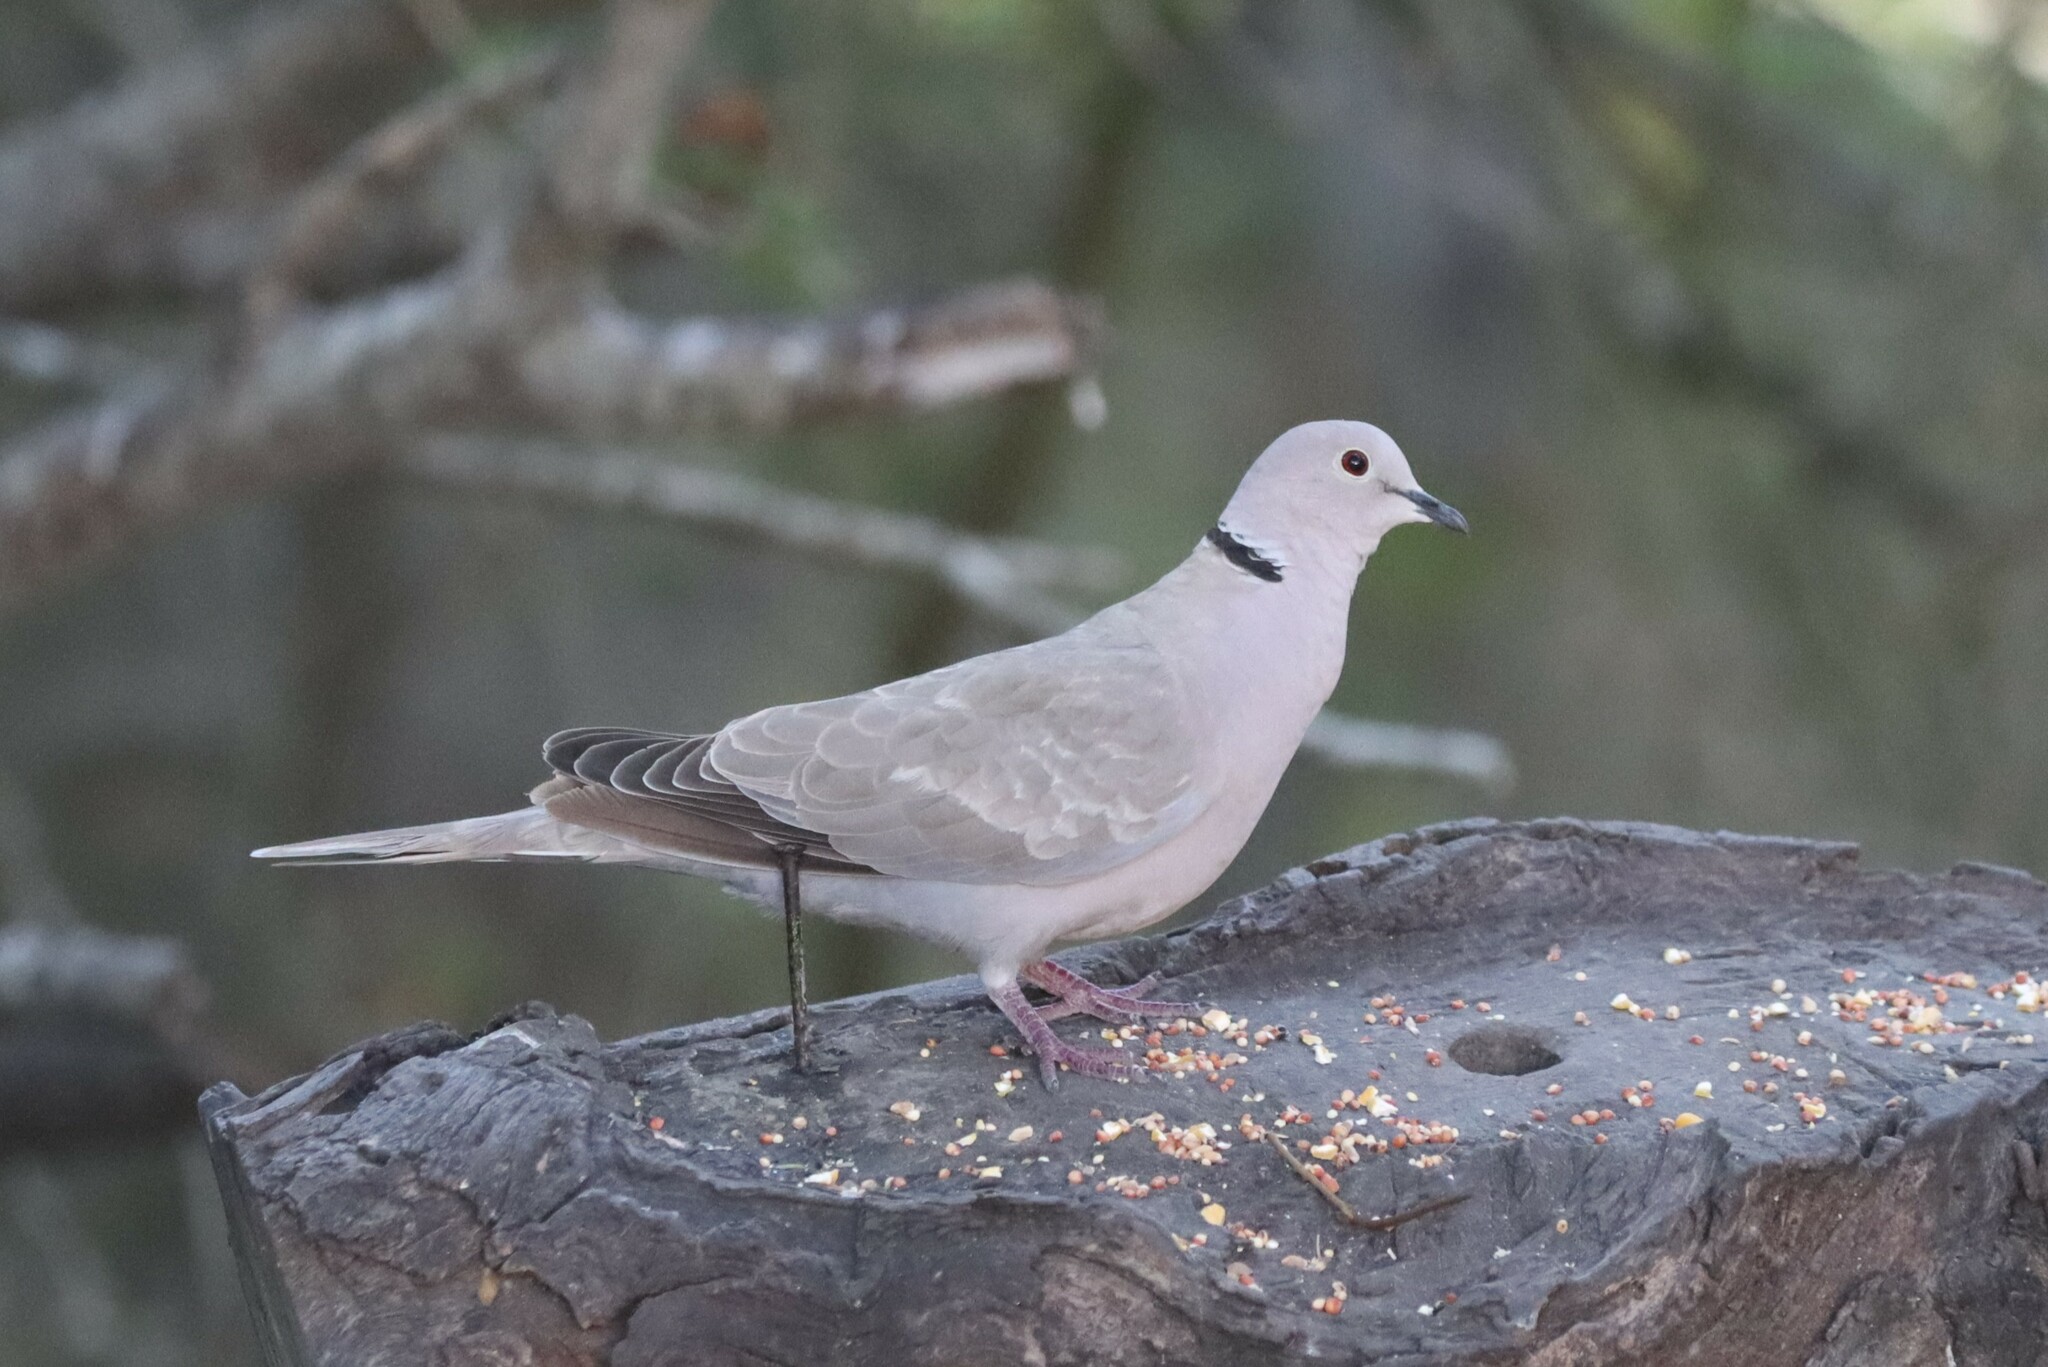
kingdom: Animalia
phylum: Chordata
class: Aves
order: Columbiformes
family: Columbidae
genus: Streptopelia
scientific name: Streptopelia decaocto
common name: Eurasian collared dove
